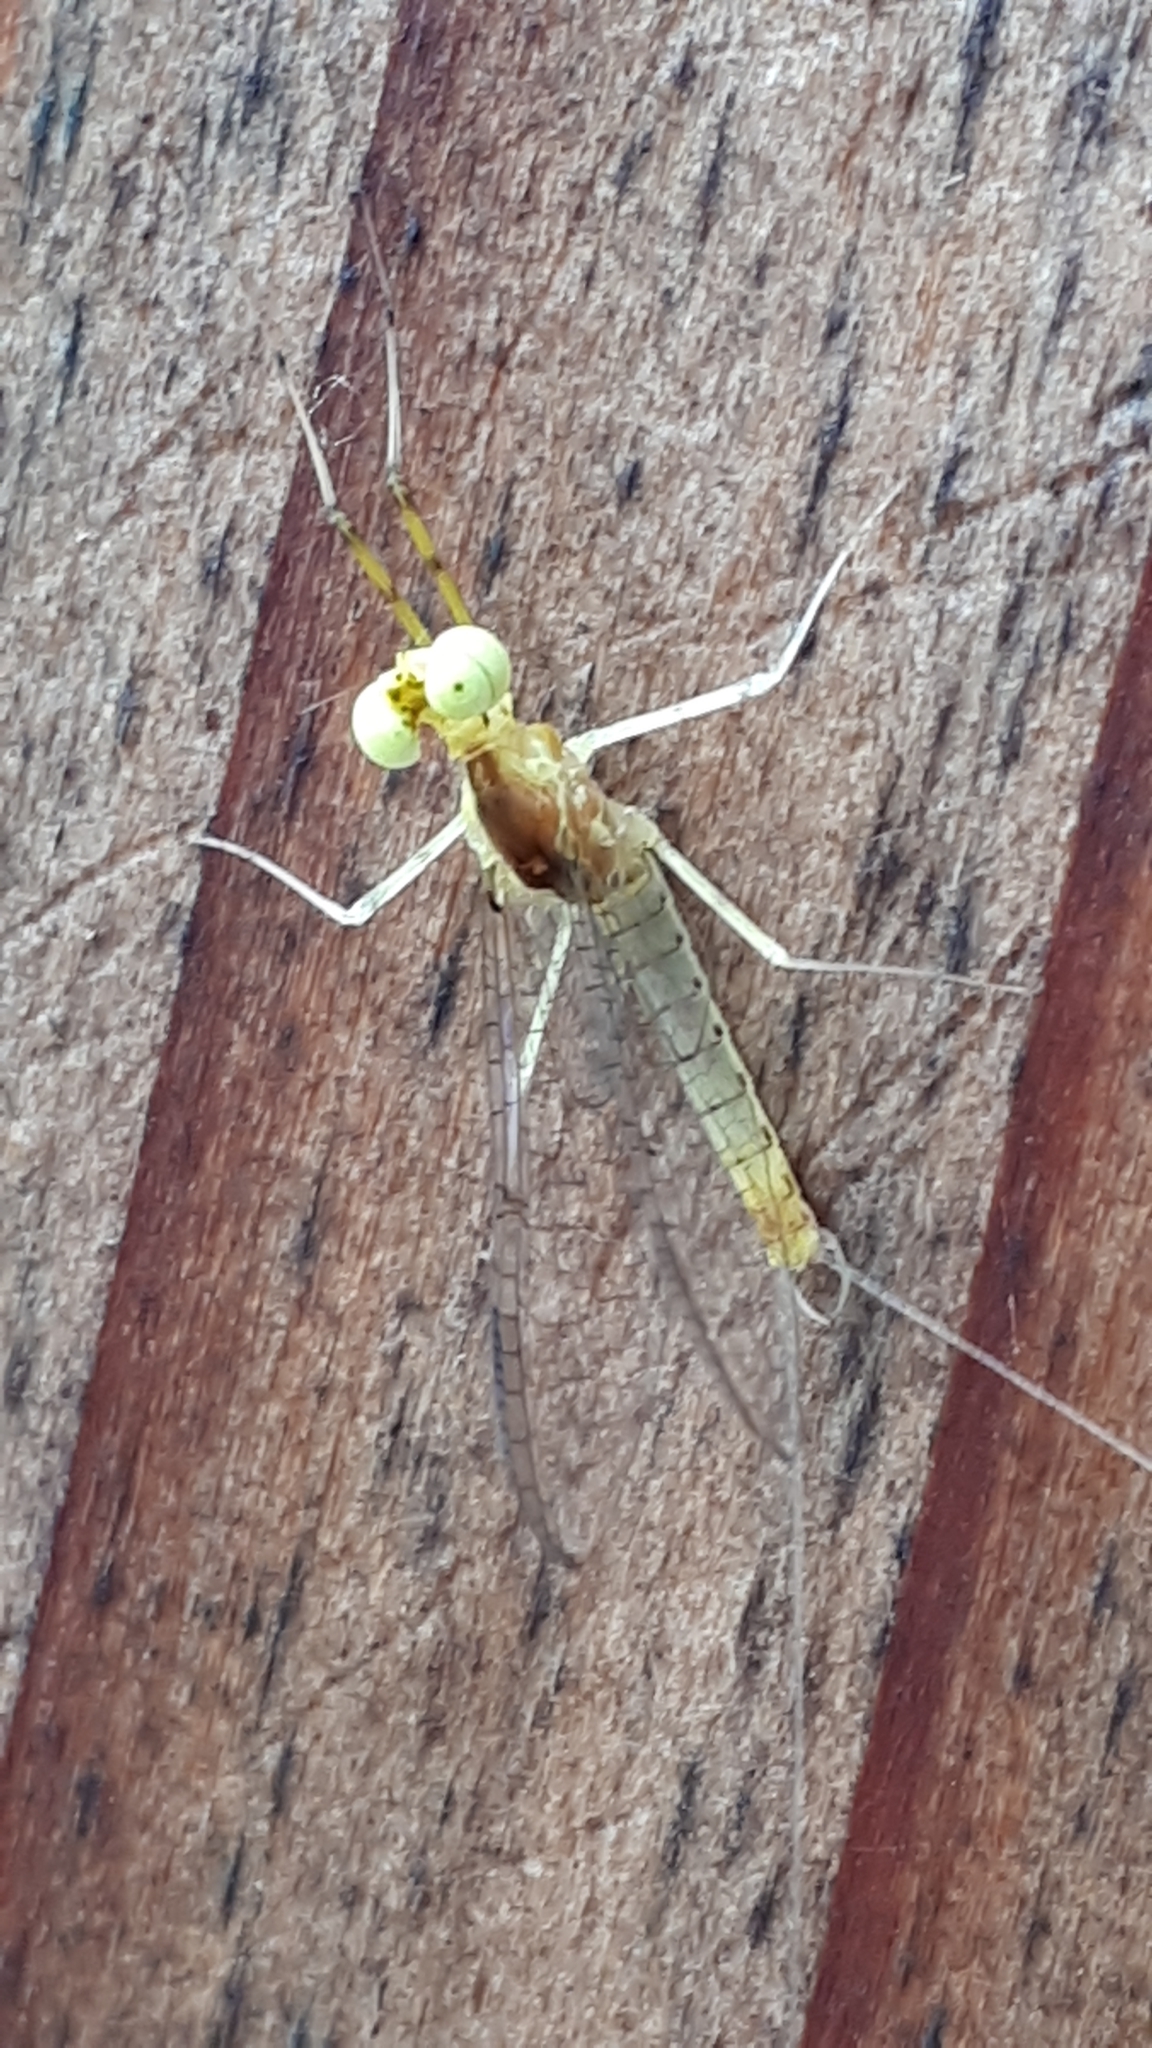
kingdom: Animalia
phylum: Arthropoda
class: Insecta
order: Ephemeroptera
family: Heptageniidae
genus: Stenacron
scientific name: Stenacron interpunctatum
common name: Orange cahill
